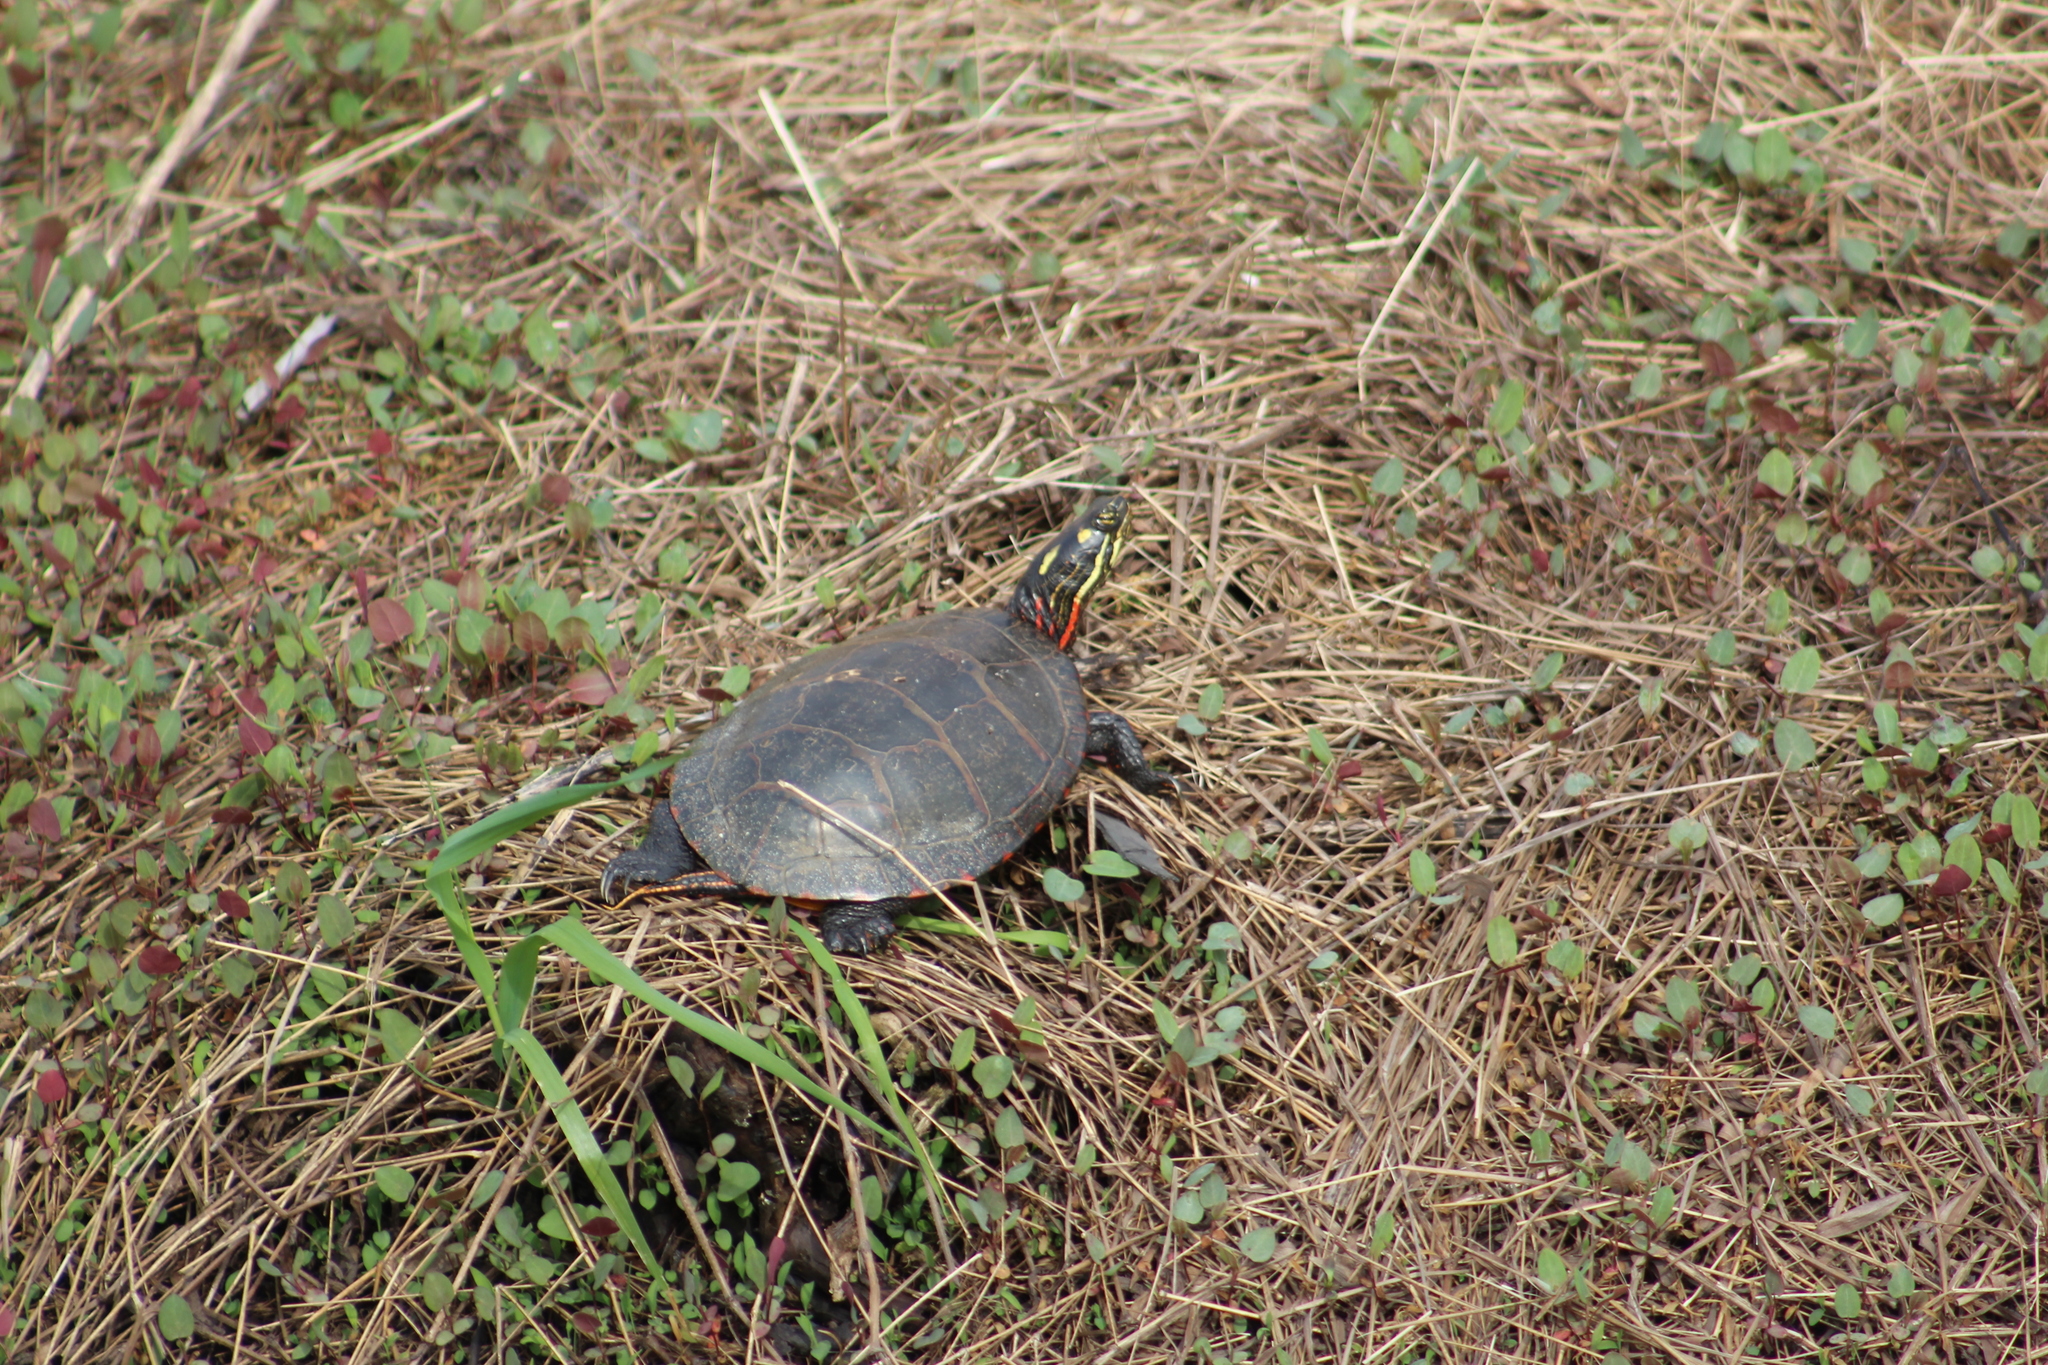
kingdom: Animalia
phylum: Chordata
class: Testudines
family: Emydidae
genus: Chrysemys
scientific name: Chrysemys picta
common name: Painted turtle
